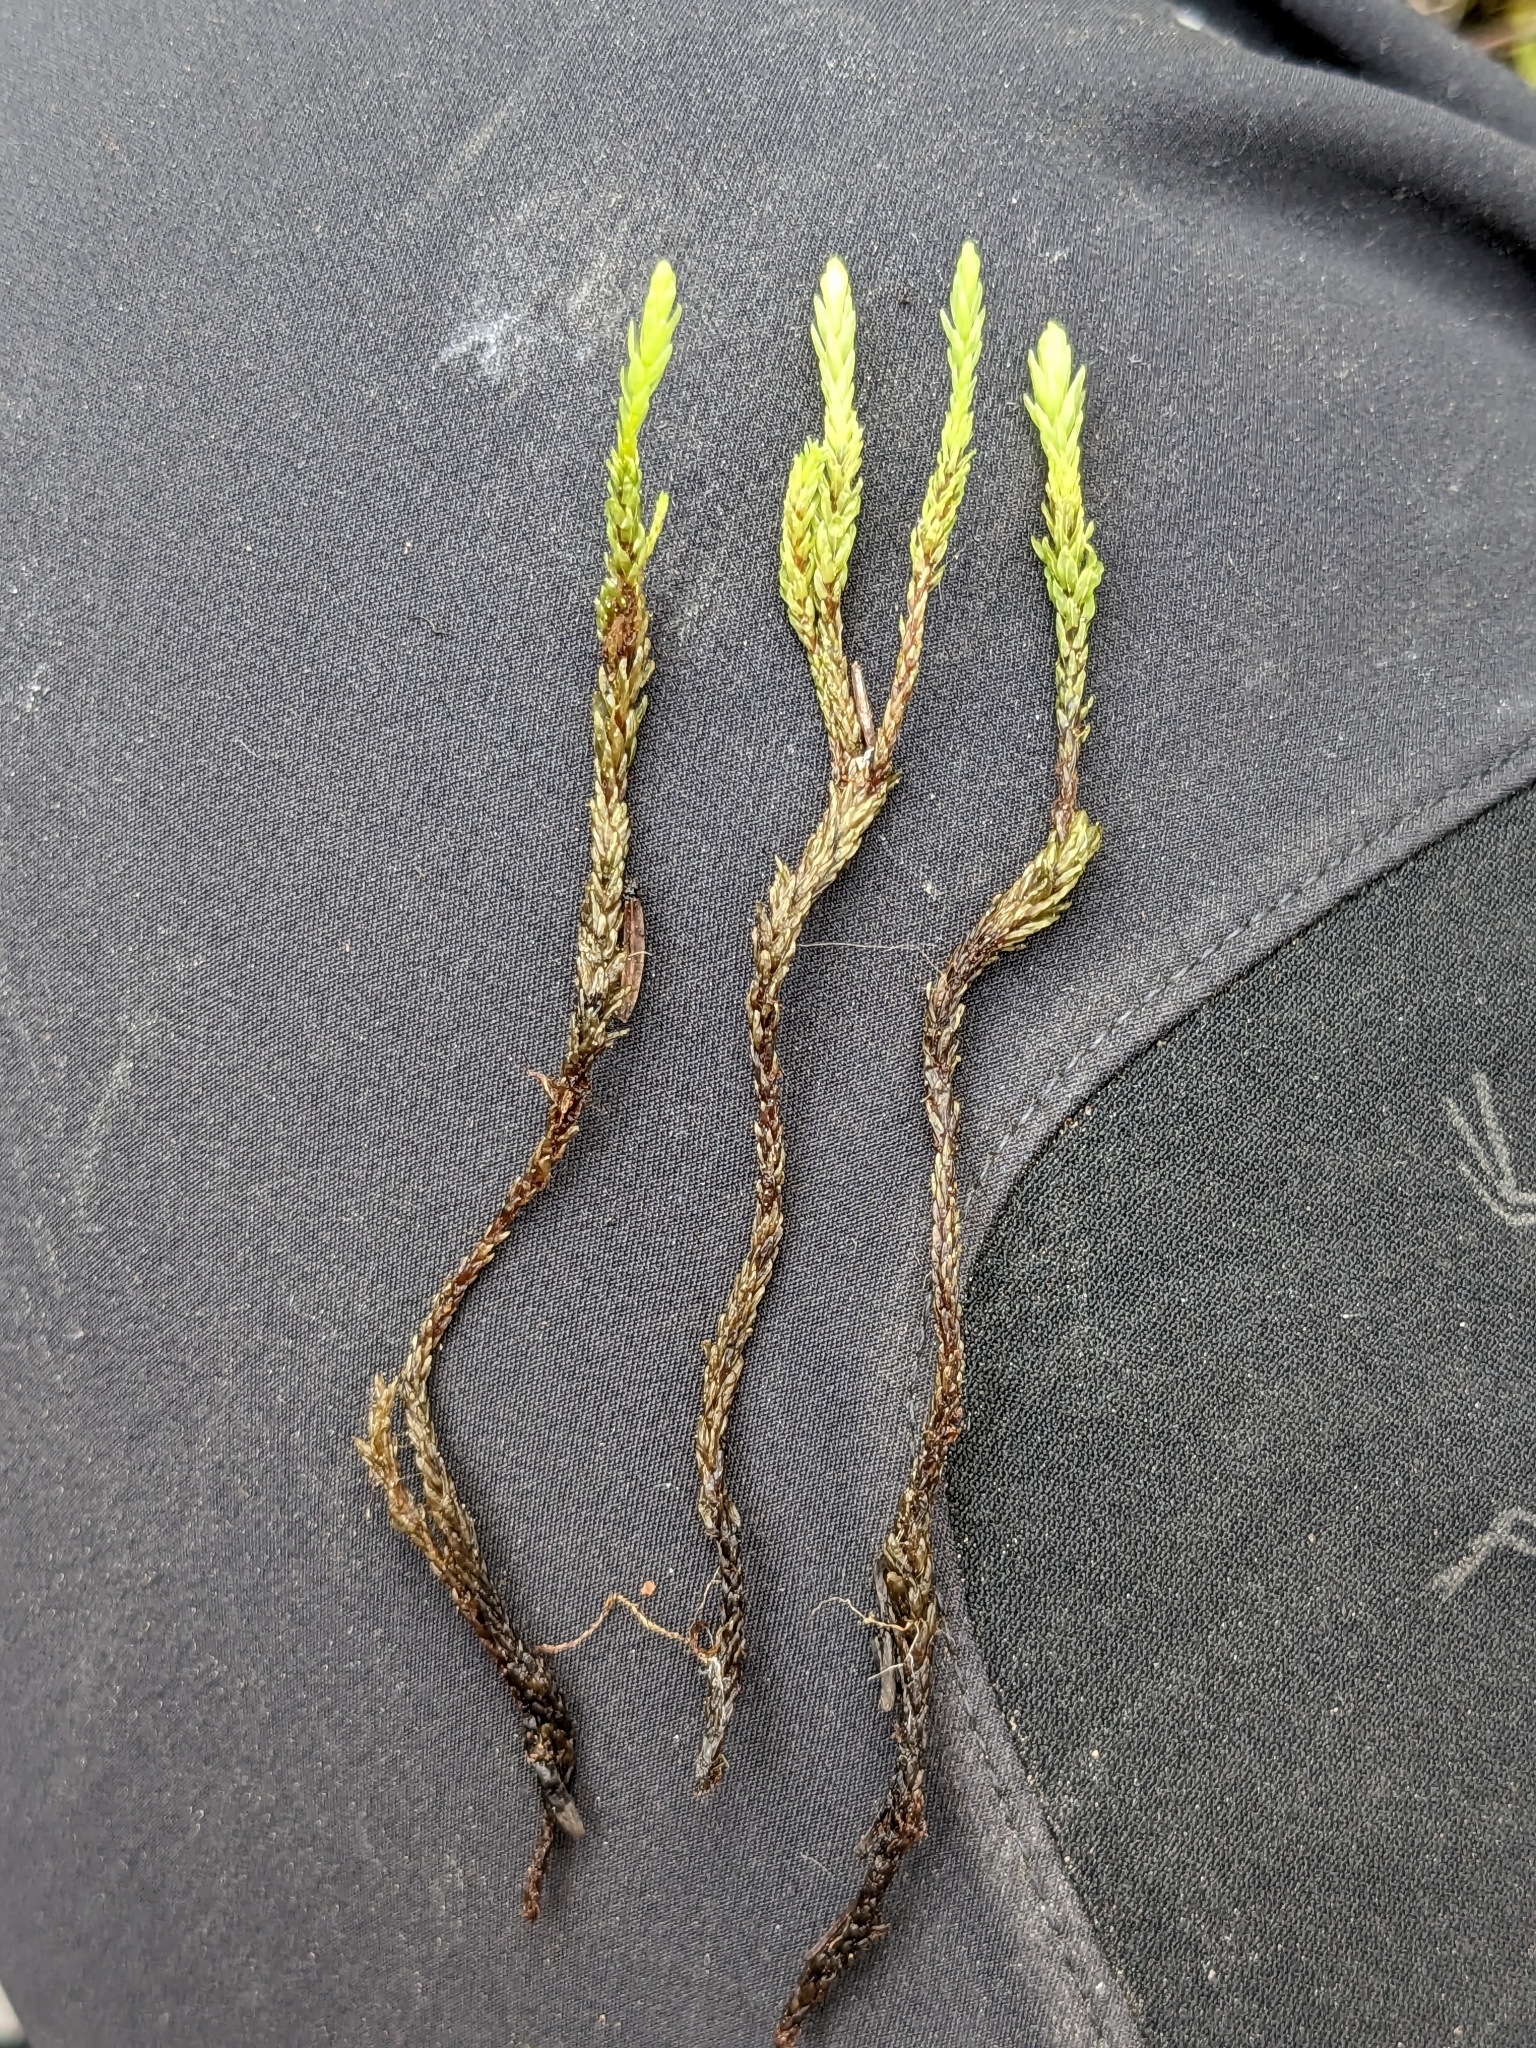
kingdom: Plantae
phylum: Bryophyta
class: Bryopsida
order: Aulacomniales
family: Aulacomniaceae
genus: Aulacomnium
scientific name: Aulacomnium turgidum
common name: Mountain groove moss
